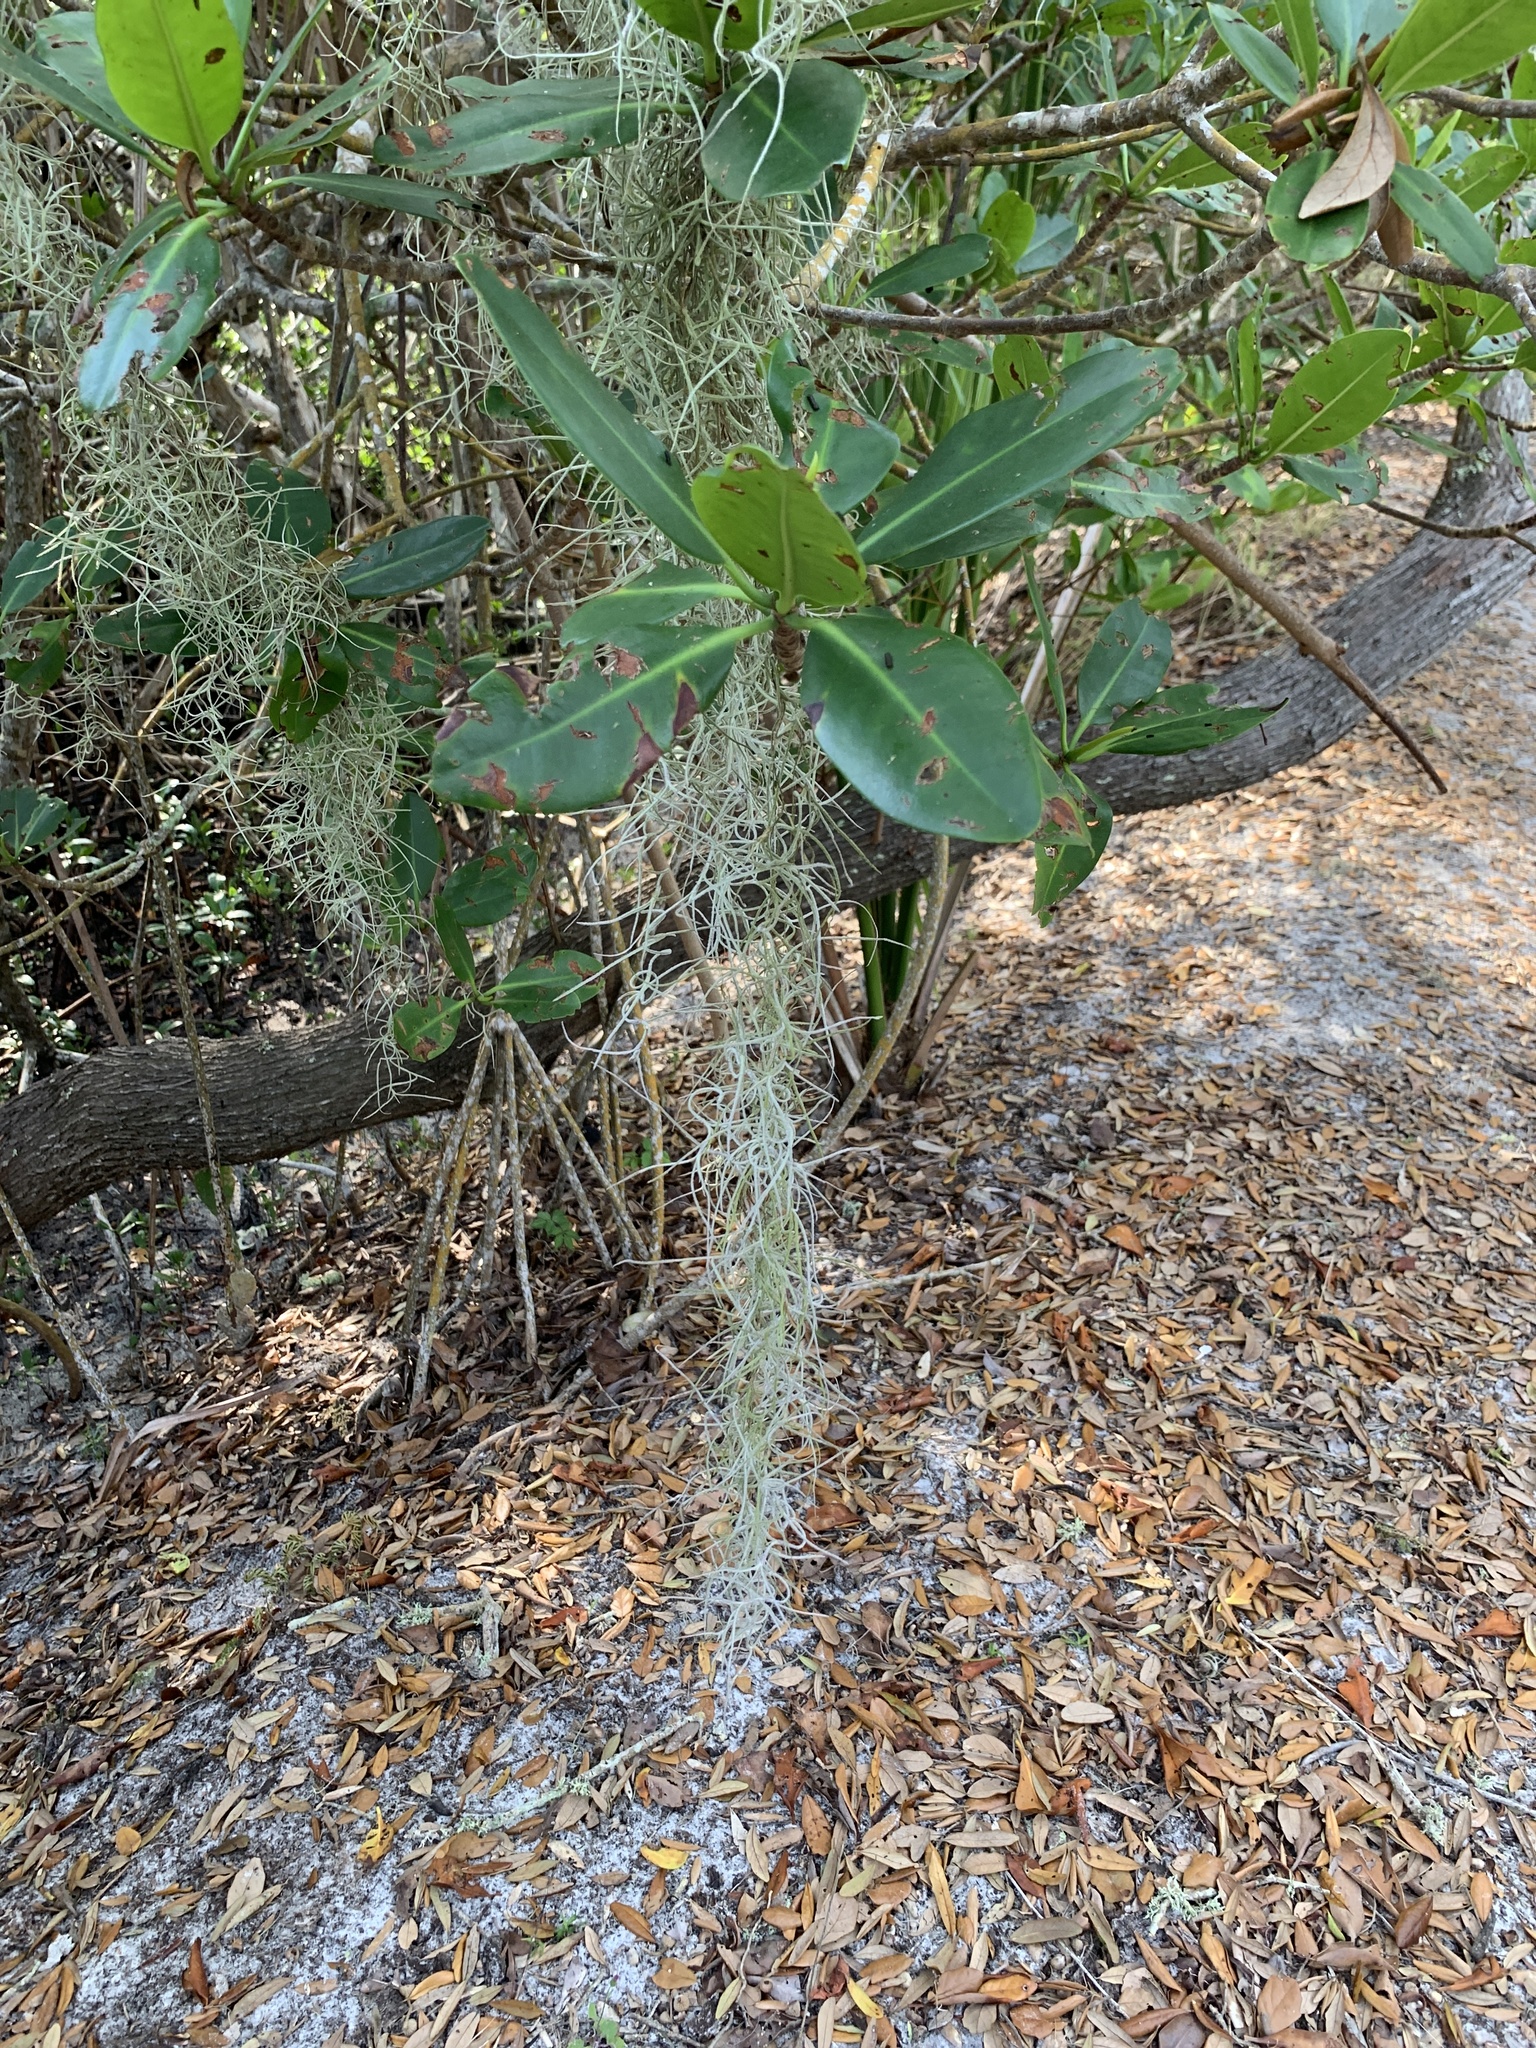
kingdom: Plantae
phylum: Tracheophyta
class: Liliopsida
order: Poales
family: Bromeliaceae
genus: Tillandsia
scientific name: Tillandsia usneoides
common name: Spanish moss
